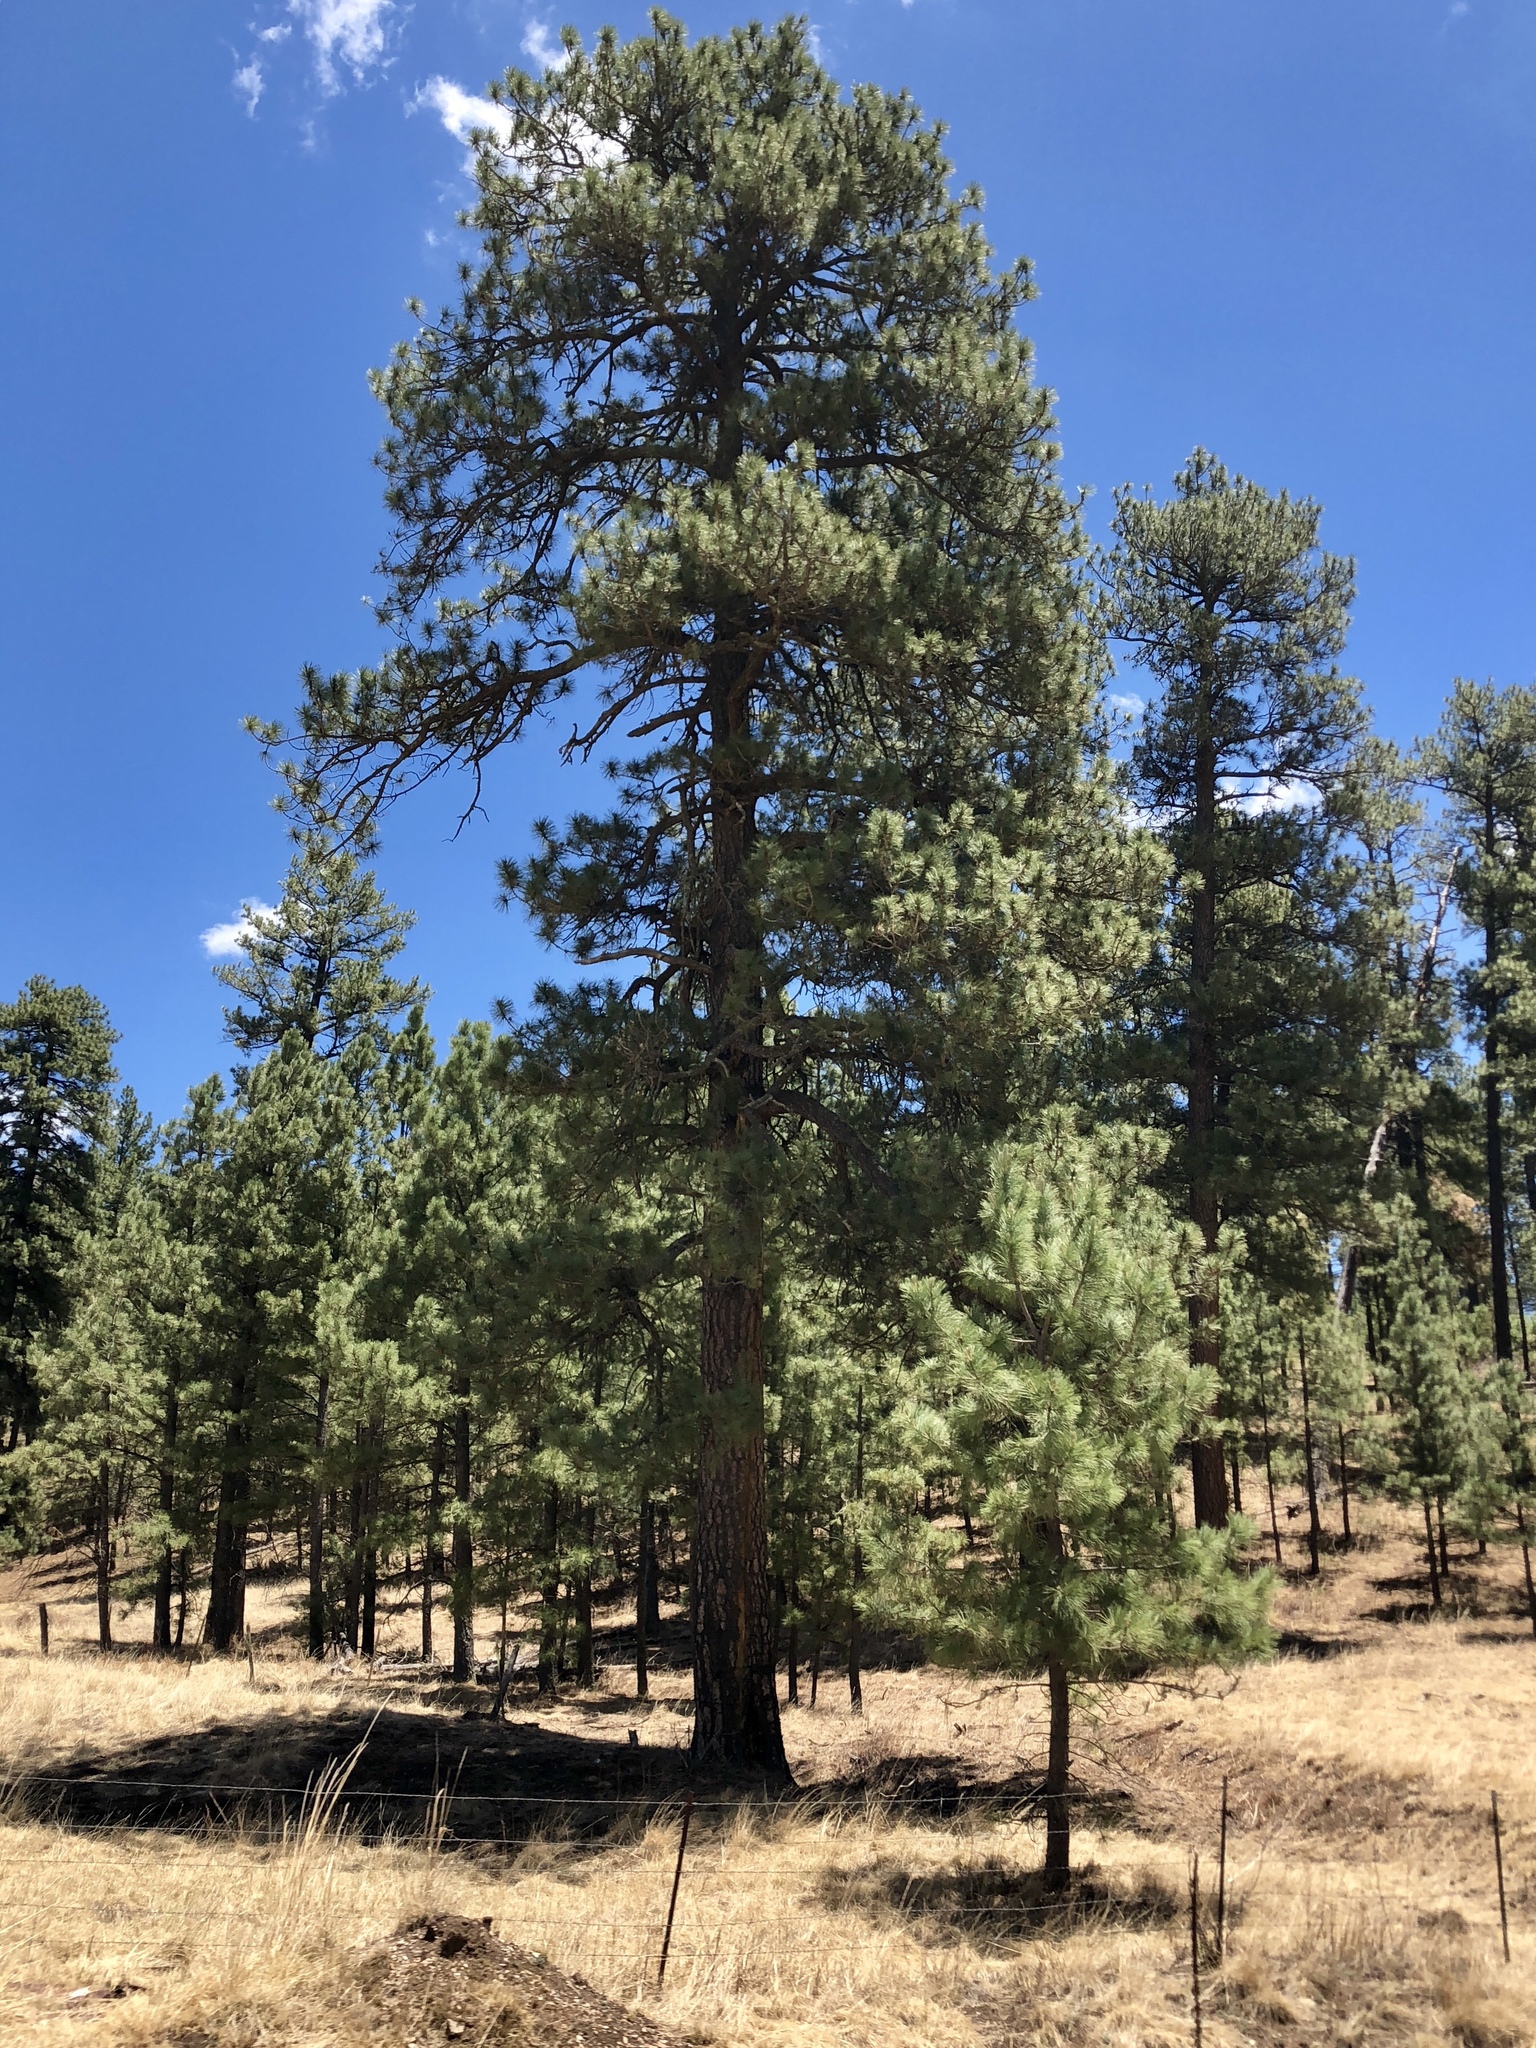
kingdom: Plantae
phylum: Tracheophyta
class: Pinopsida
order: Pinales
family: Pinaceae
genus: Pinus
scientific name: Pinus ponderosa
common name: Western yellow-pine
